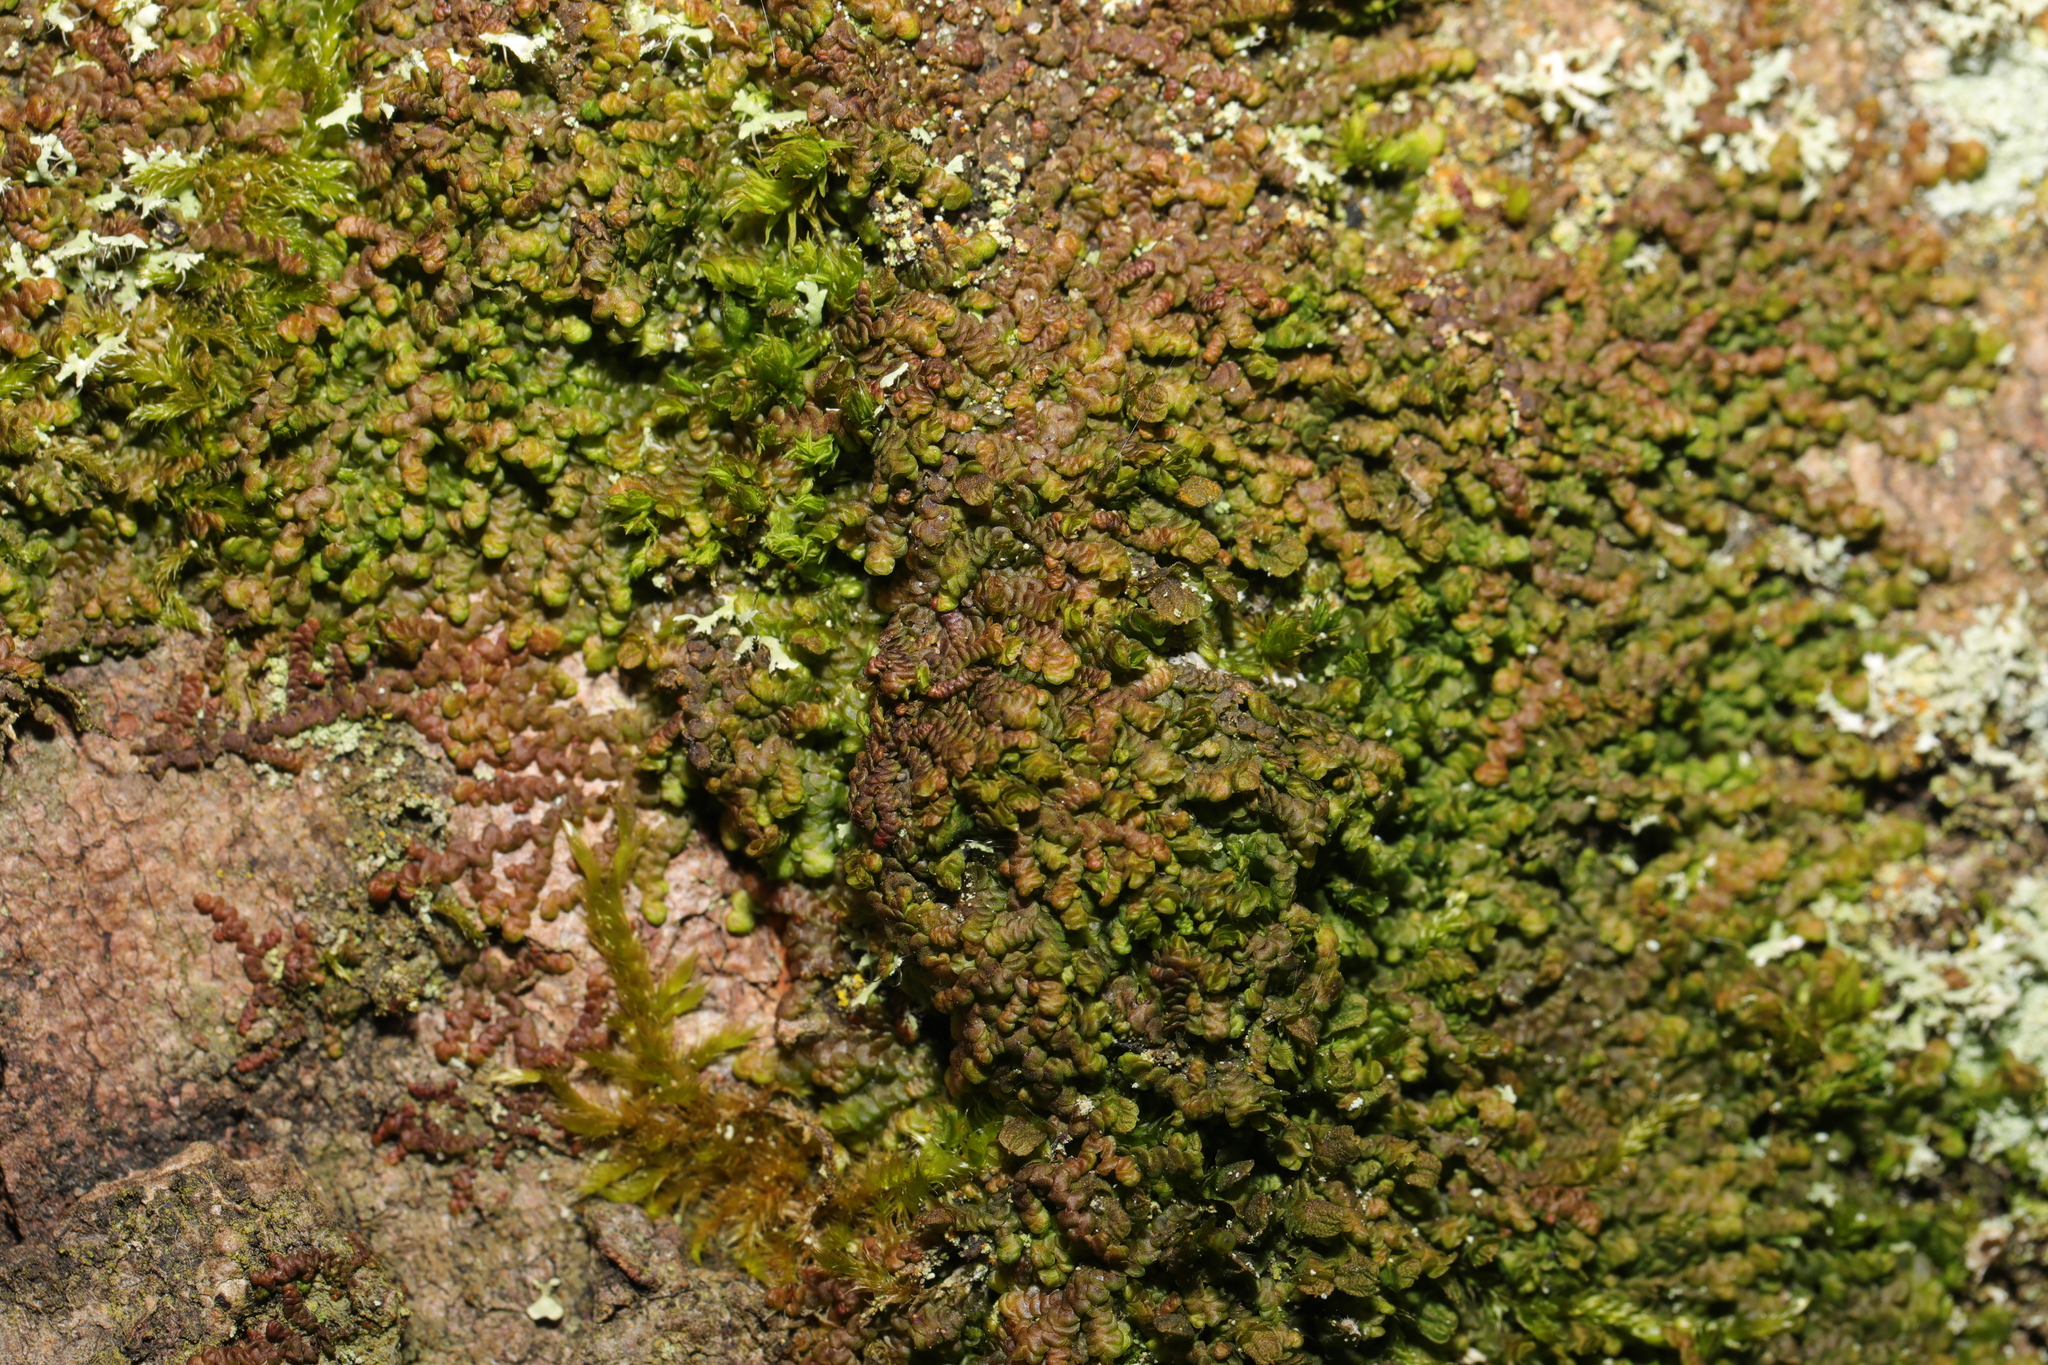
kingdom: Plantae
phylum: Marchantiophyta
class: Jungermanniopsida
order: Porellales
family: Frullaniaceae
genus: Frullania
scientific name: Frullania dilatata
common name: Dilated scalewort
